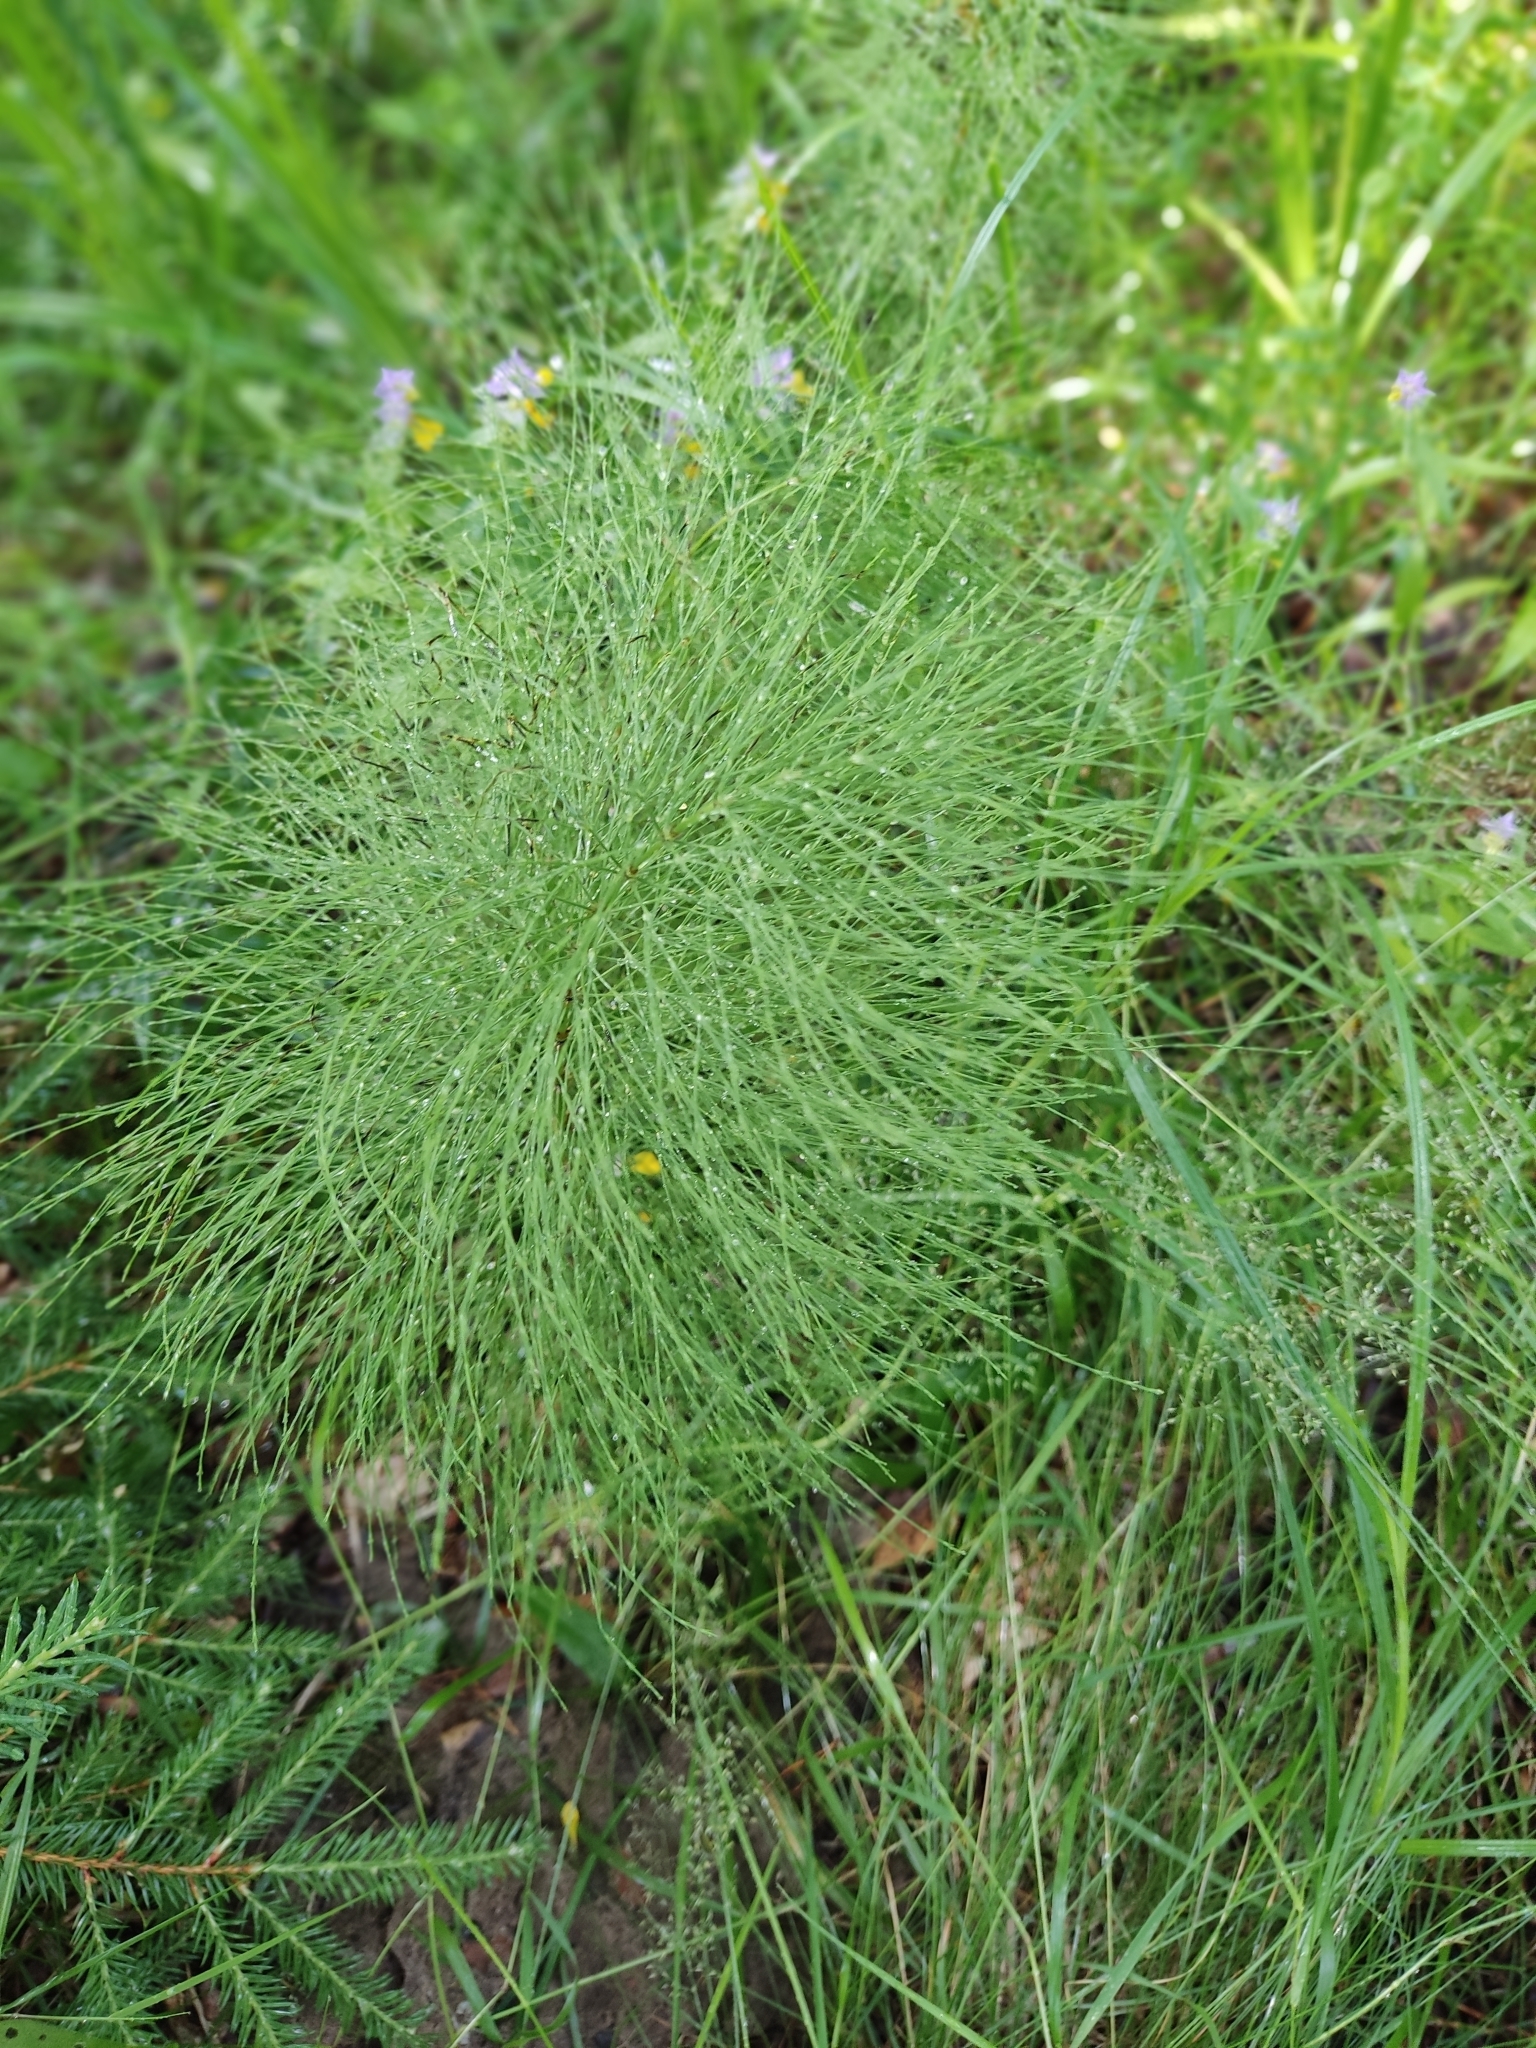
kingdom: Plantae
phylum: Tracheophyta
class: Polypodiopsida
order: Equisetales
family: Equisetaceae
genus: Equisetum
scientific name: Equisetum sylvaticum
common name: Wood horsetail
